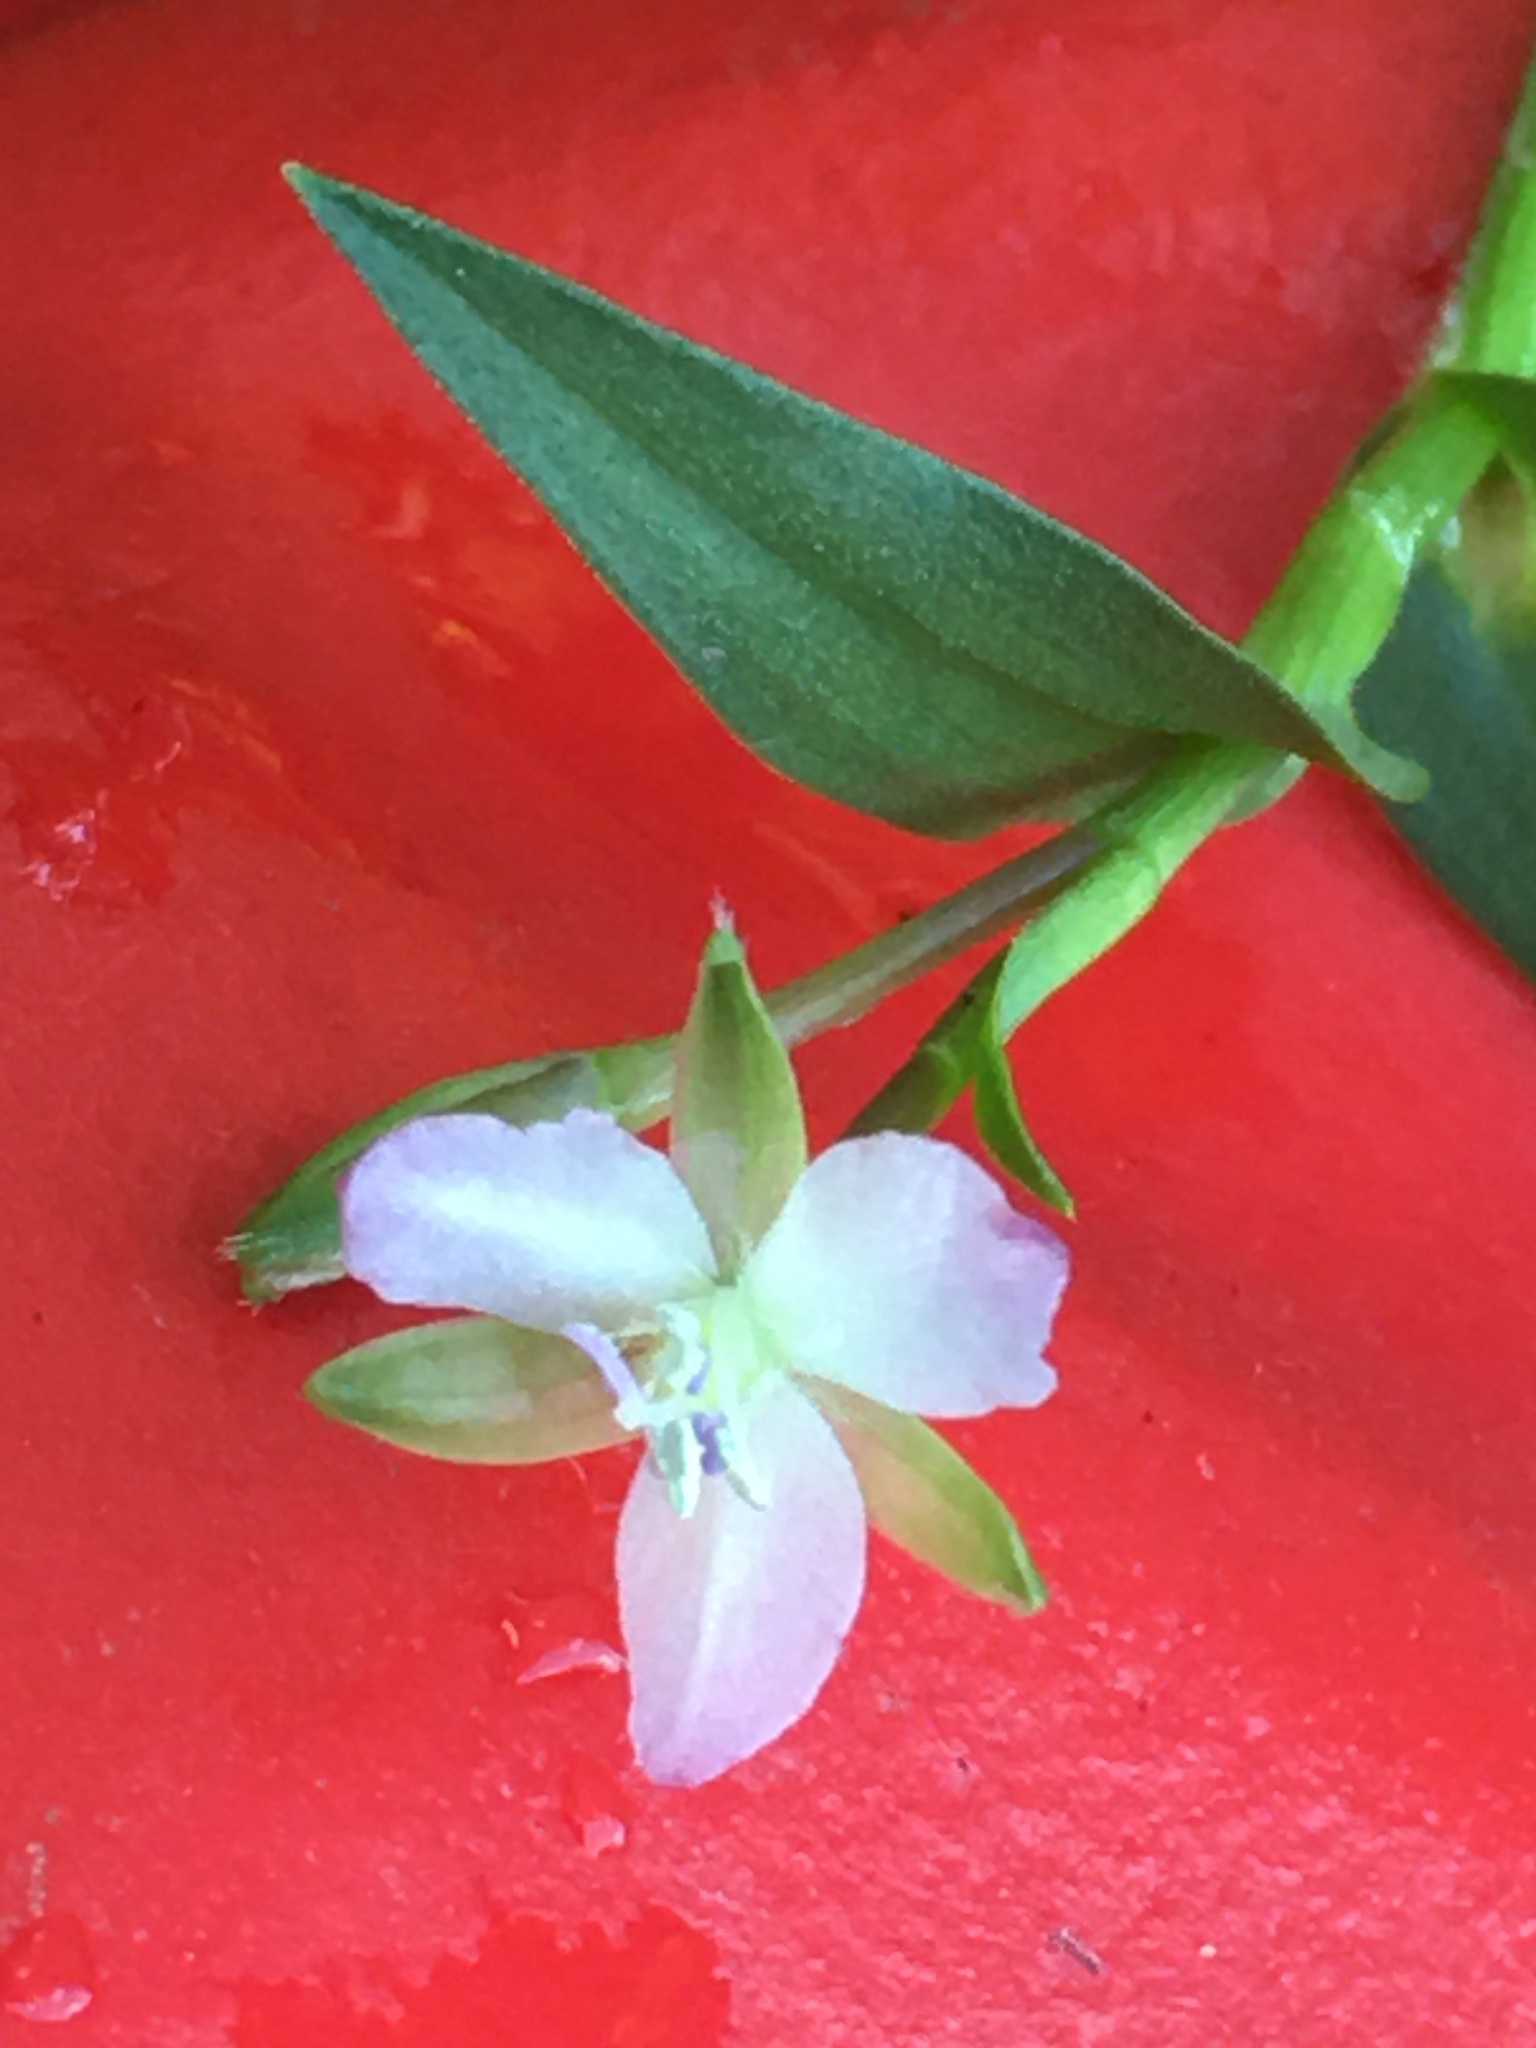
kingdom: Plantae
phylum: Tracheophyta
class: Liliopsida
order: Commelinales
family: Commelinaceae
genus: Murdannia
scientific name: Murdannia keisak
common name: Wartremoving herb
